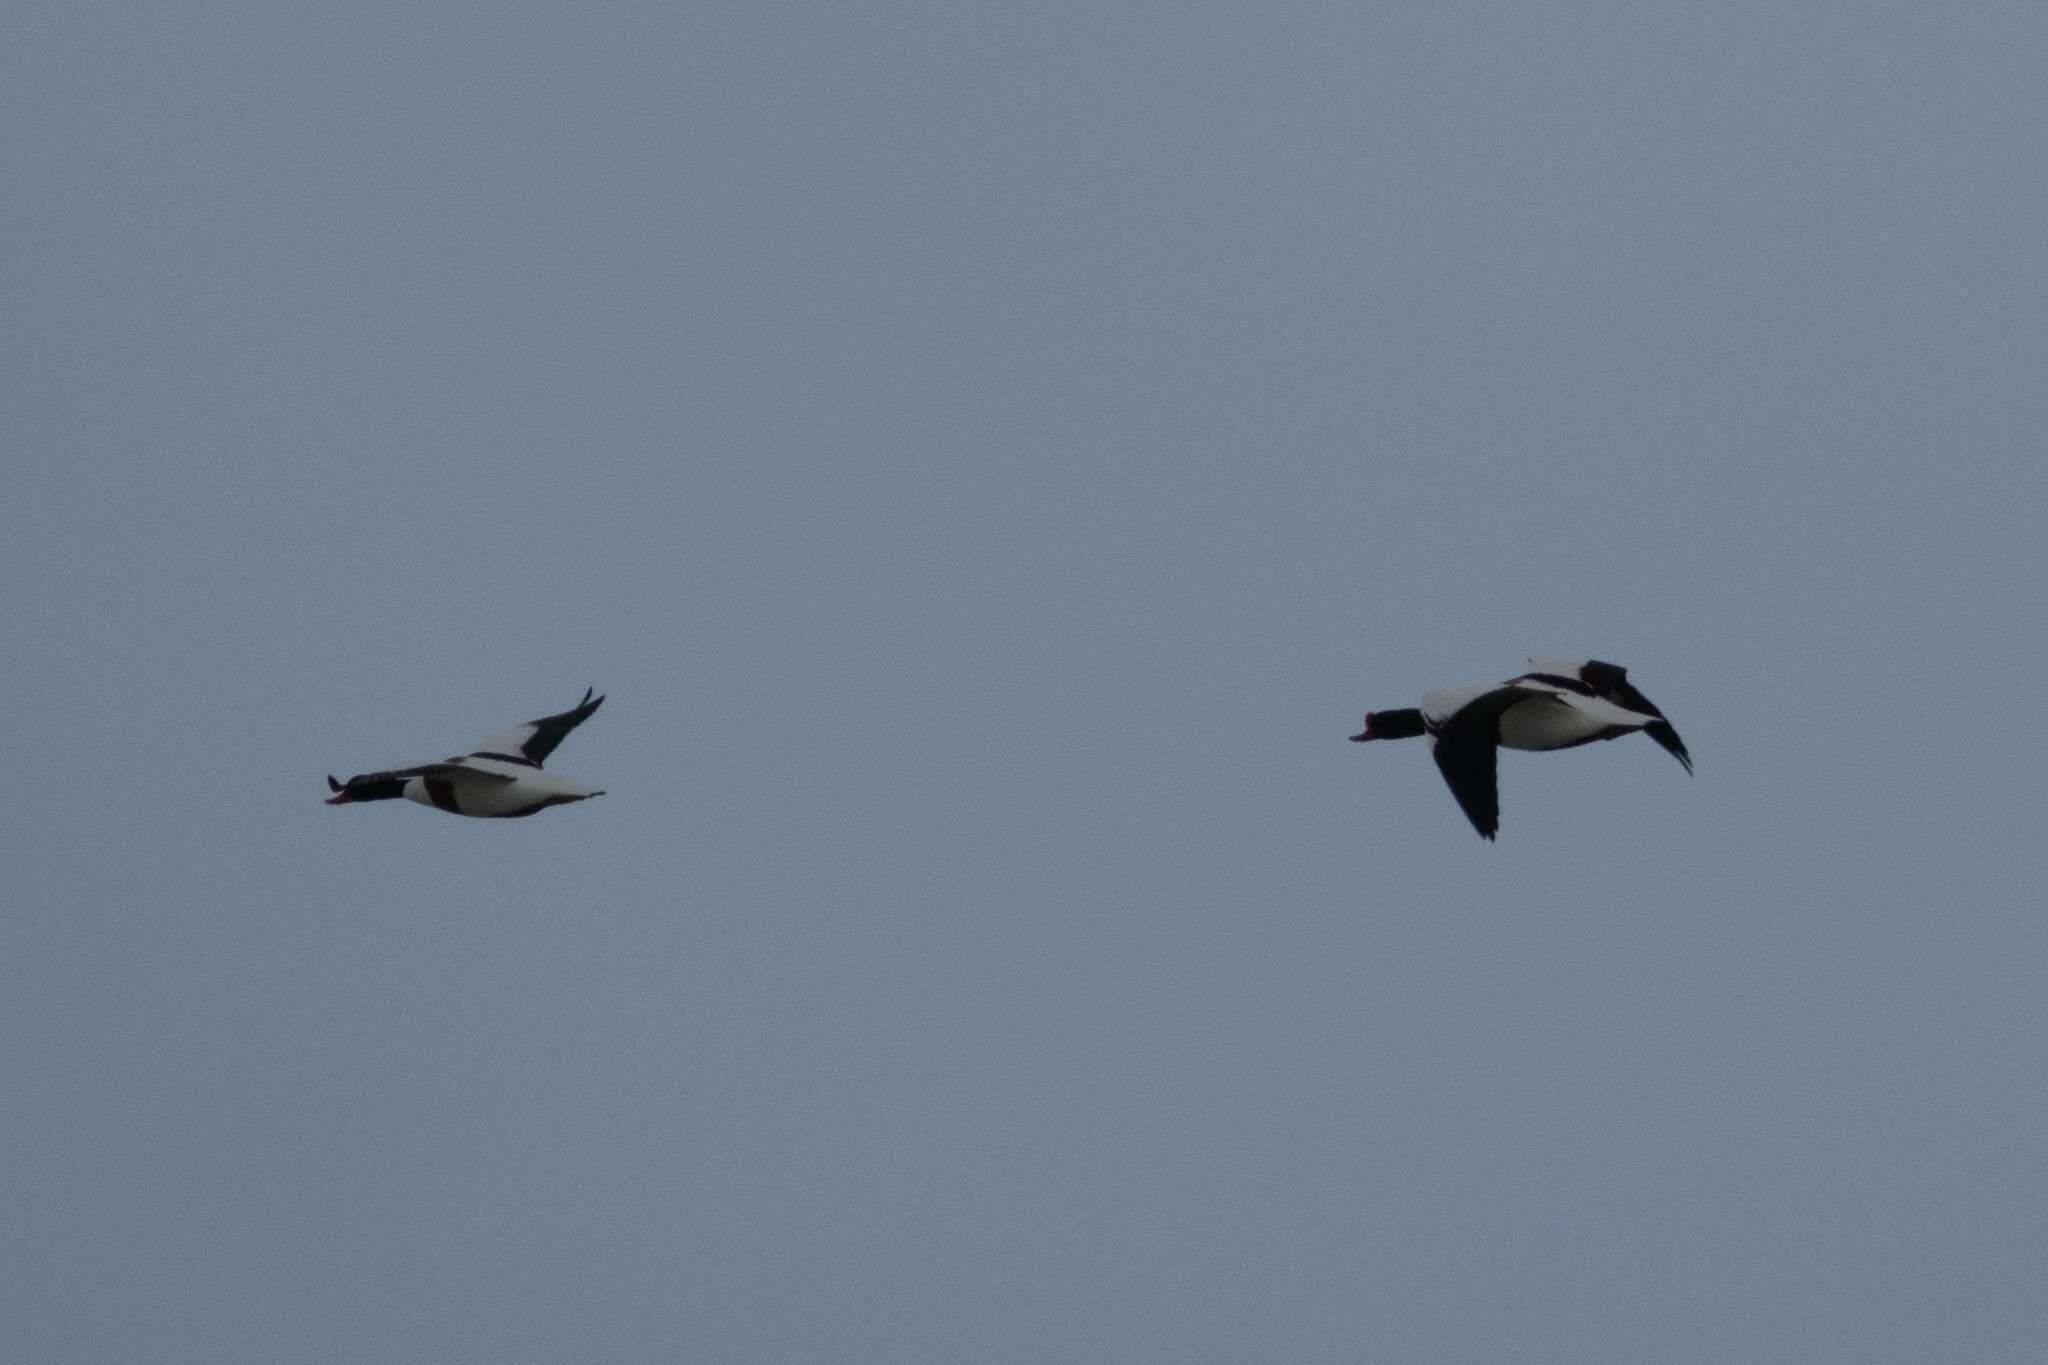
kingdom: Animalia
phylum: Chordata
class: Aves
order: Anseriformes
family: Anatidae
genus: Tadorna
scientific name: Tadorna tadorna
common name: Common shelduck
